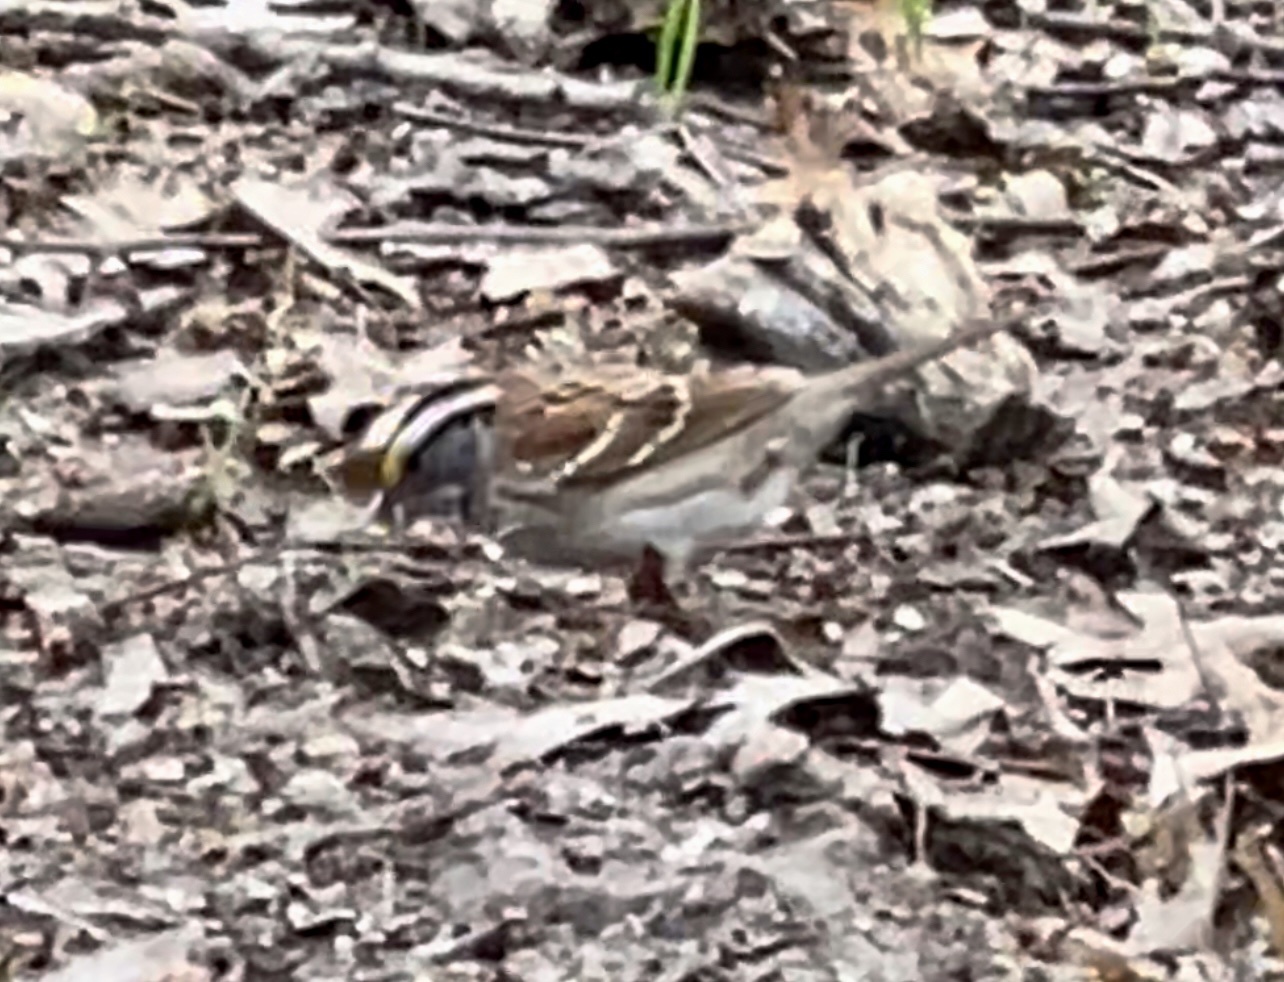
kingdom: Animalia
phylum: Chordata
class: Aves
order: Passeriformes
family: Passerellidae
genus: Zonotrichia
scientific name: Zonotrichia albicollis
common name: White-throated sparrow
